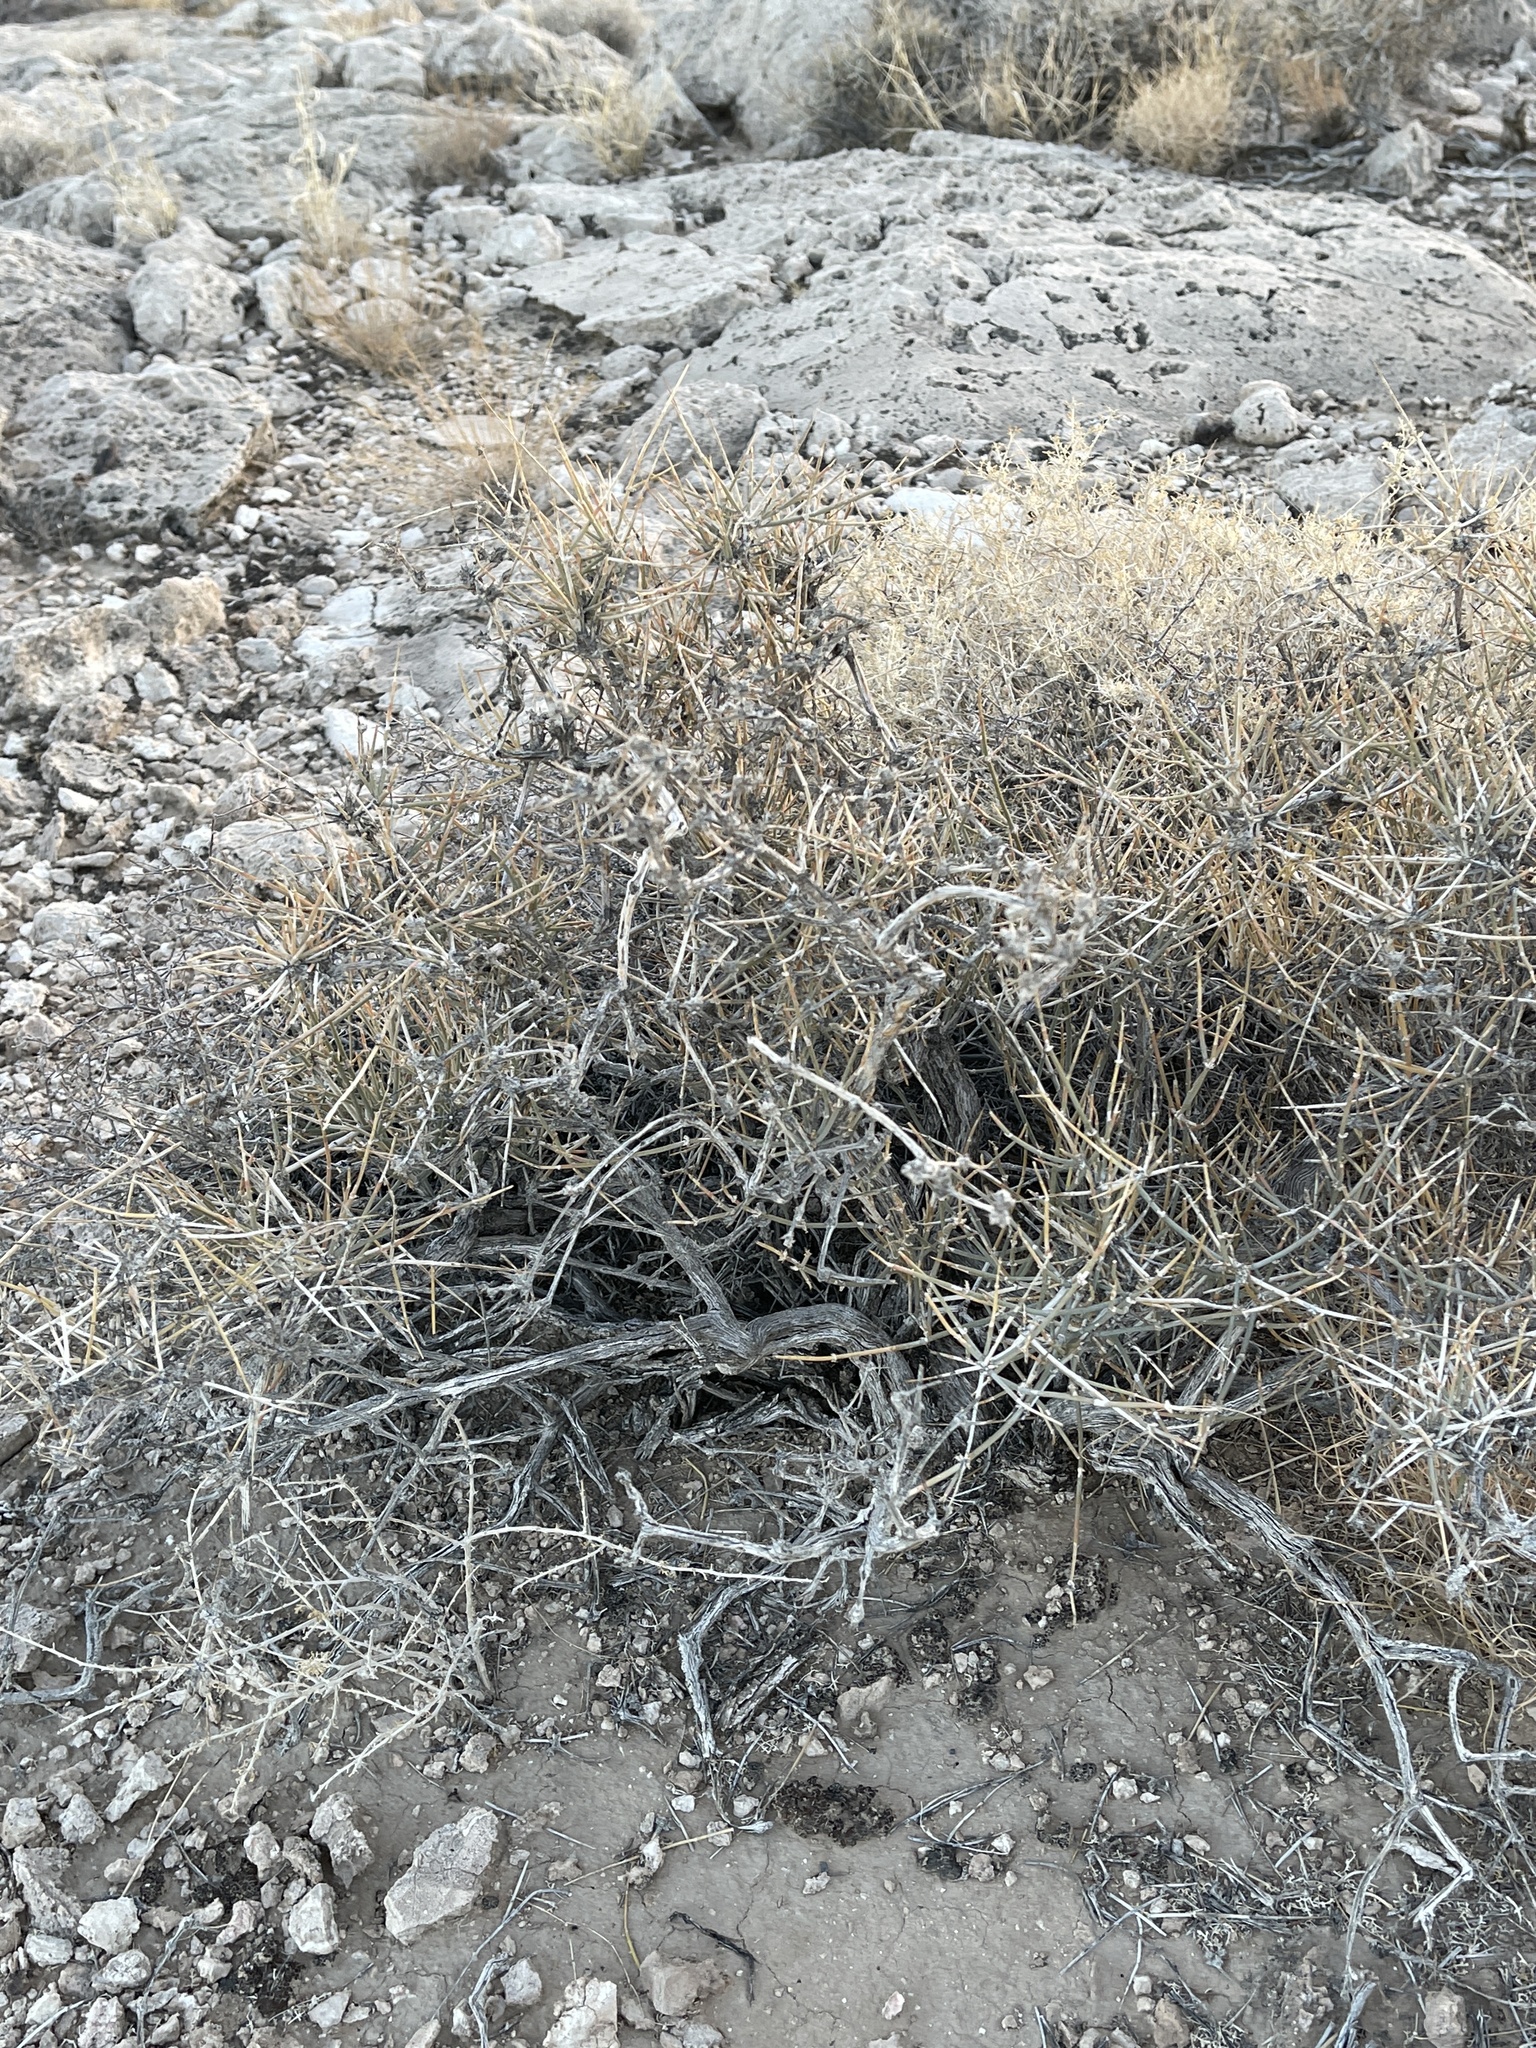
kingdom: Plantae
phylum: Tracheophyta
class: Gnetopsida
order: Ephedrales
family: Ephedraceae
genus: Ephedra
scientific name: Ephedra nevadensis
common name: Gray ephedra
